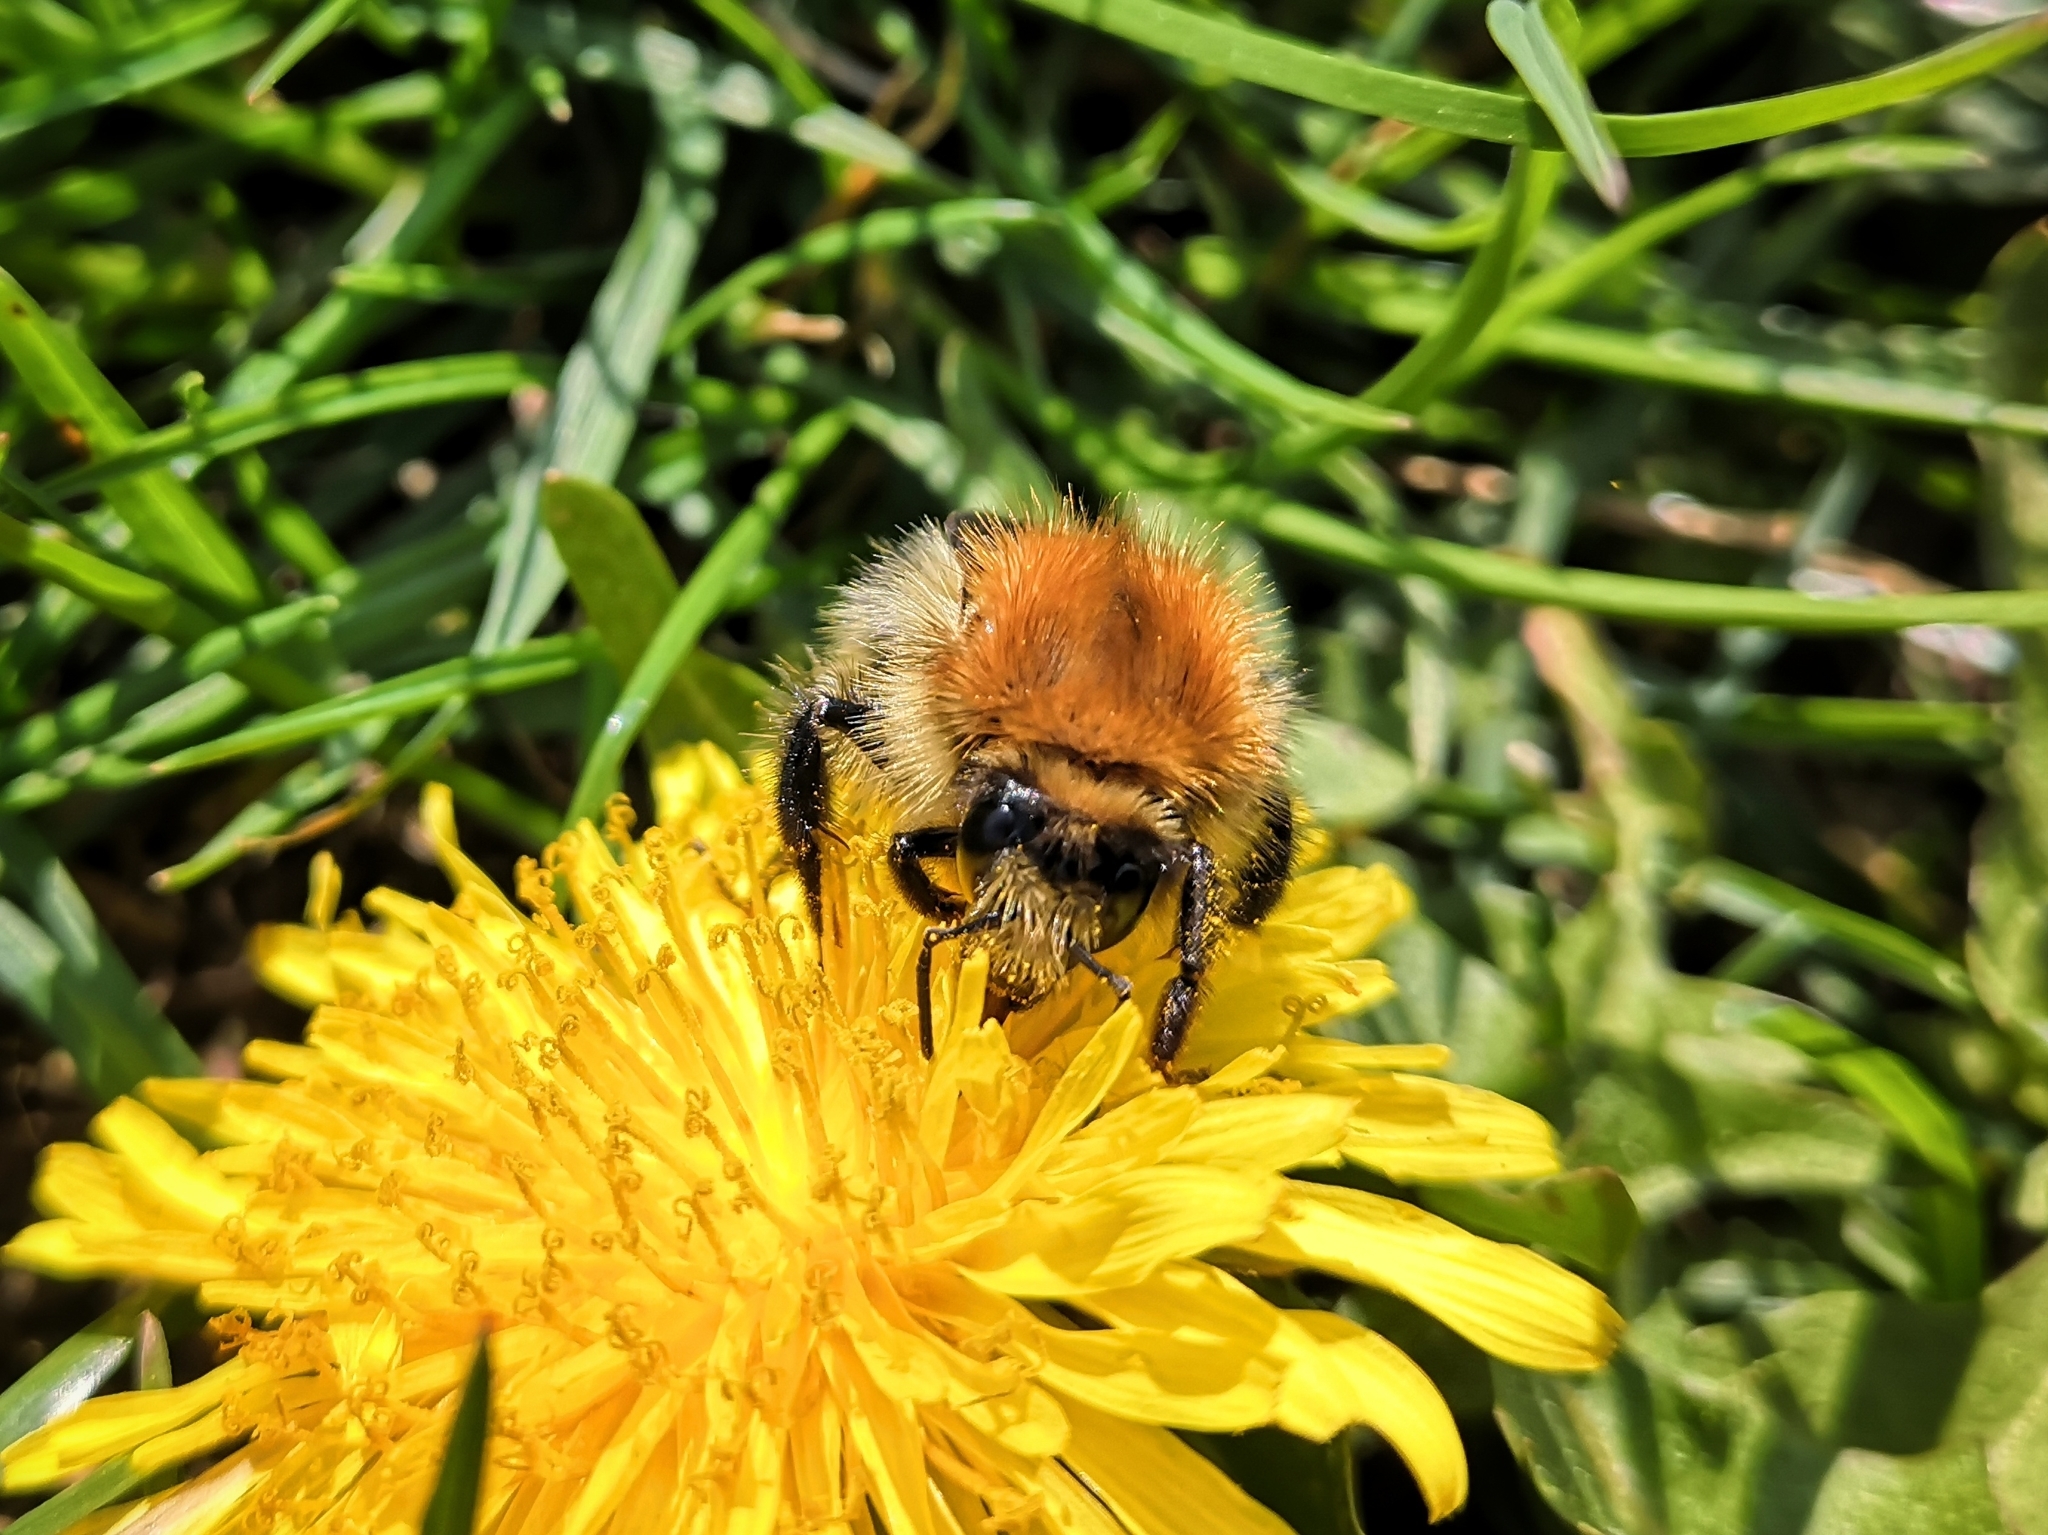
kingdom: Animalia
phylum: Arthropoda
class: Insecta
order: Hymenoptera
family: Apidae
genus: Bombus
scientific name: Bombus pascuorum
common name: Common carder bee
